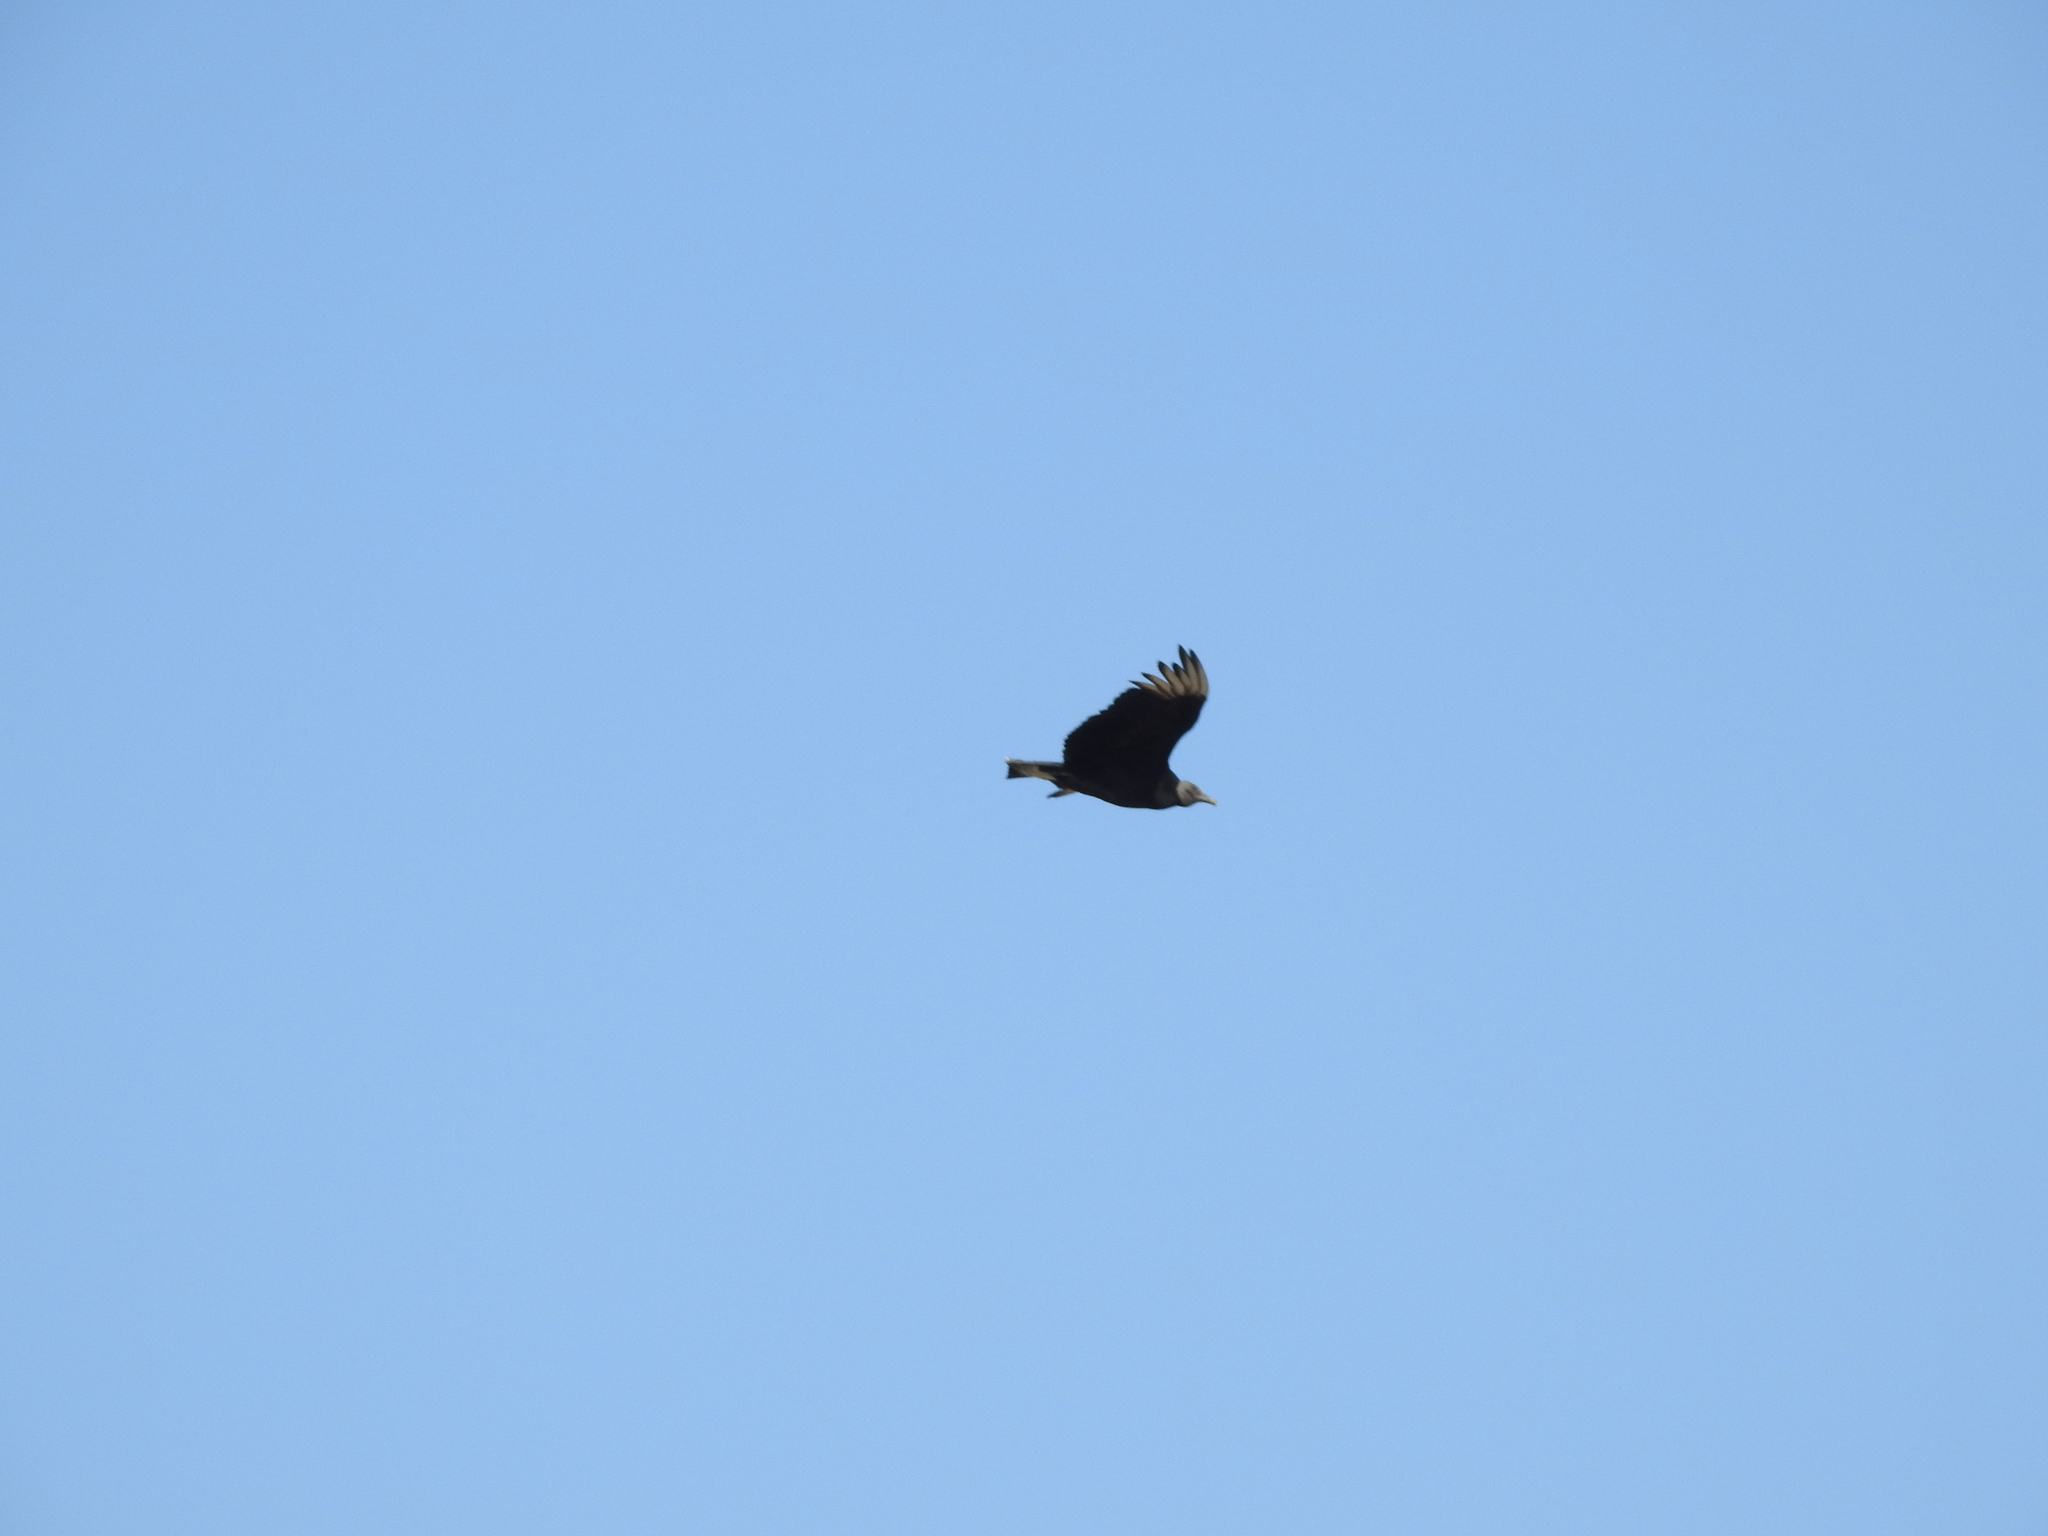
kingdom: Animalia
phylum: Chordata
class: Aves
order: Accipitriformes
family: Cathartidae
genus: Coragyps
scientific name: Coragyps atratus
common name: Black vulture
